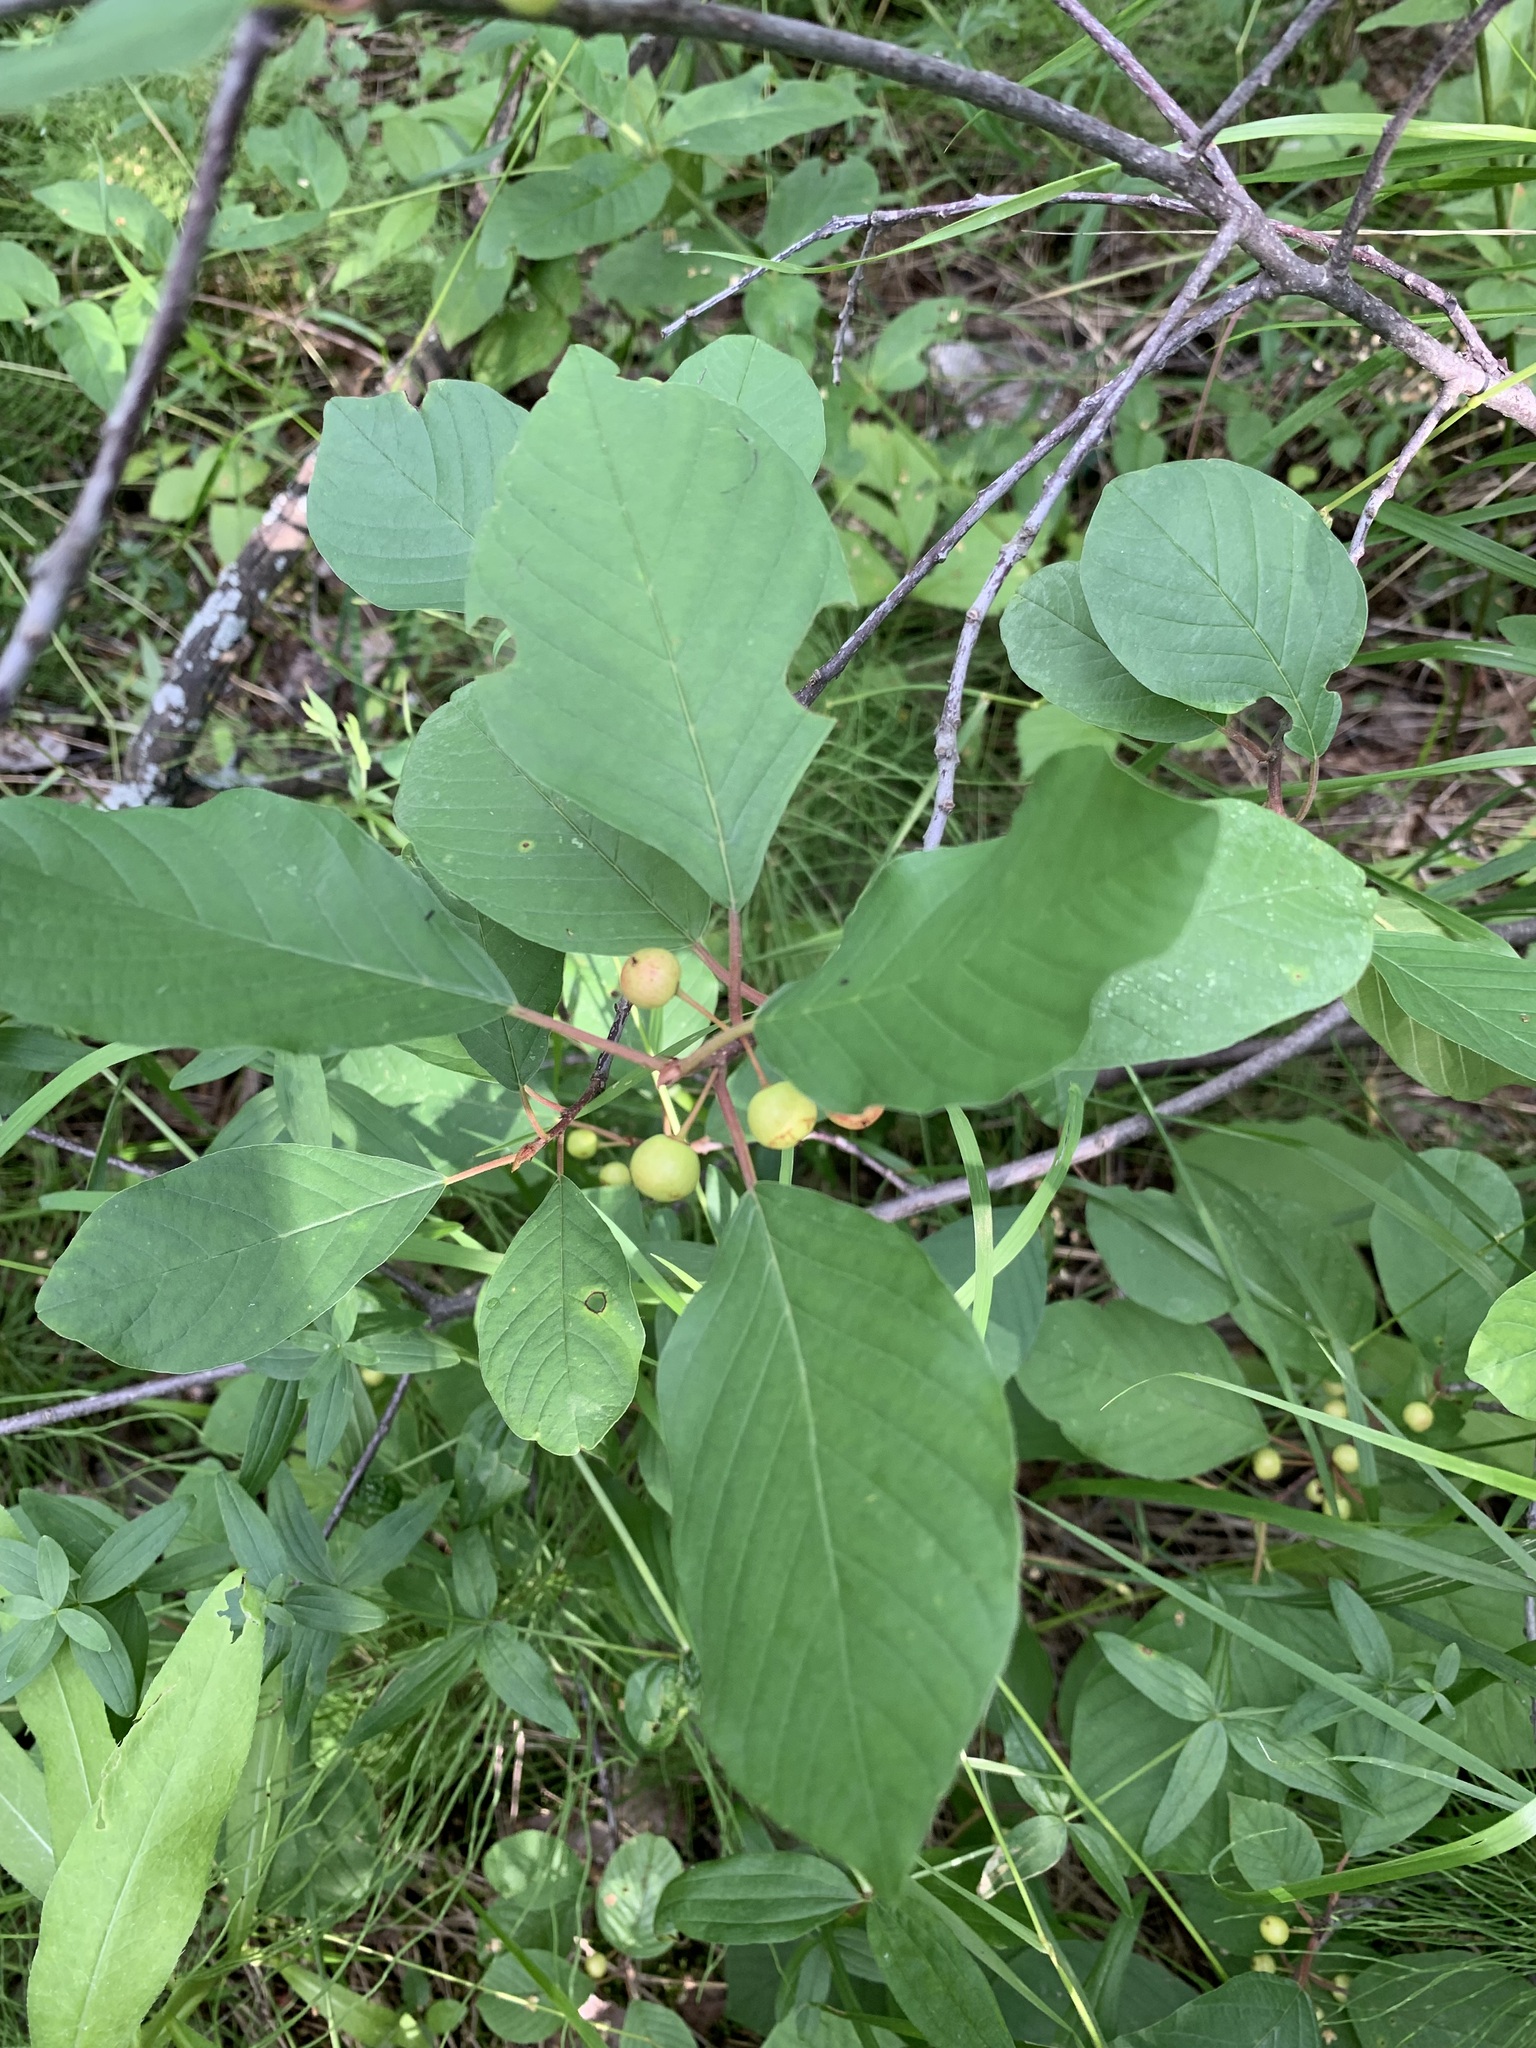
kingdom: Plantae
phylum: Tracheophyta
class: Magnoliopsida
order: Rosales
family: Rhamnaceae
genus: Frangula
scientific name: Frangula alnus
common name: Alder buckthorn
